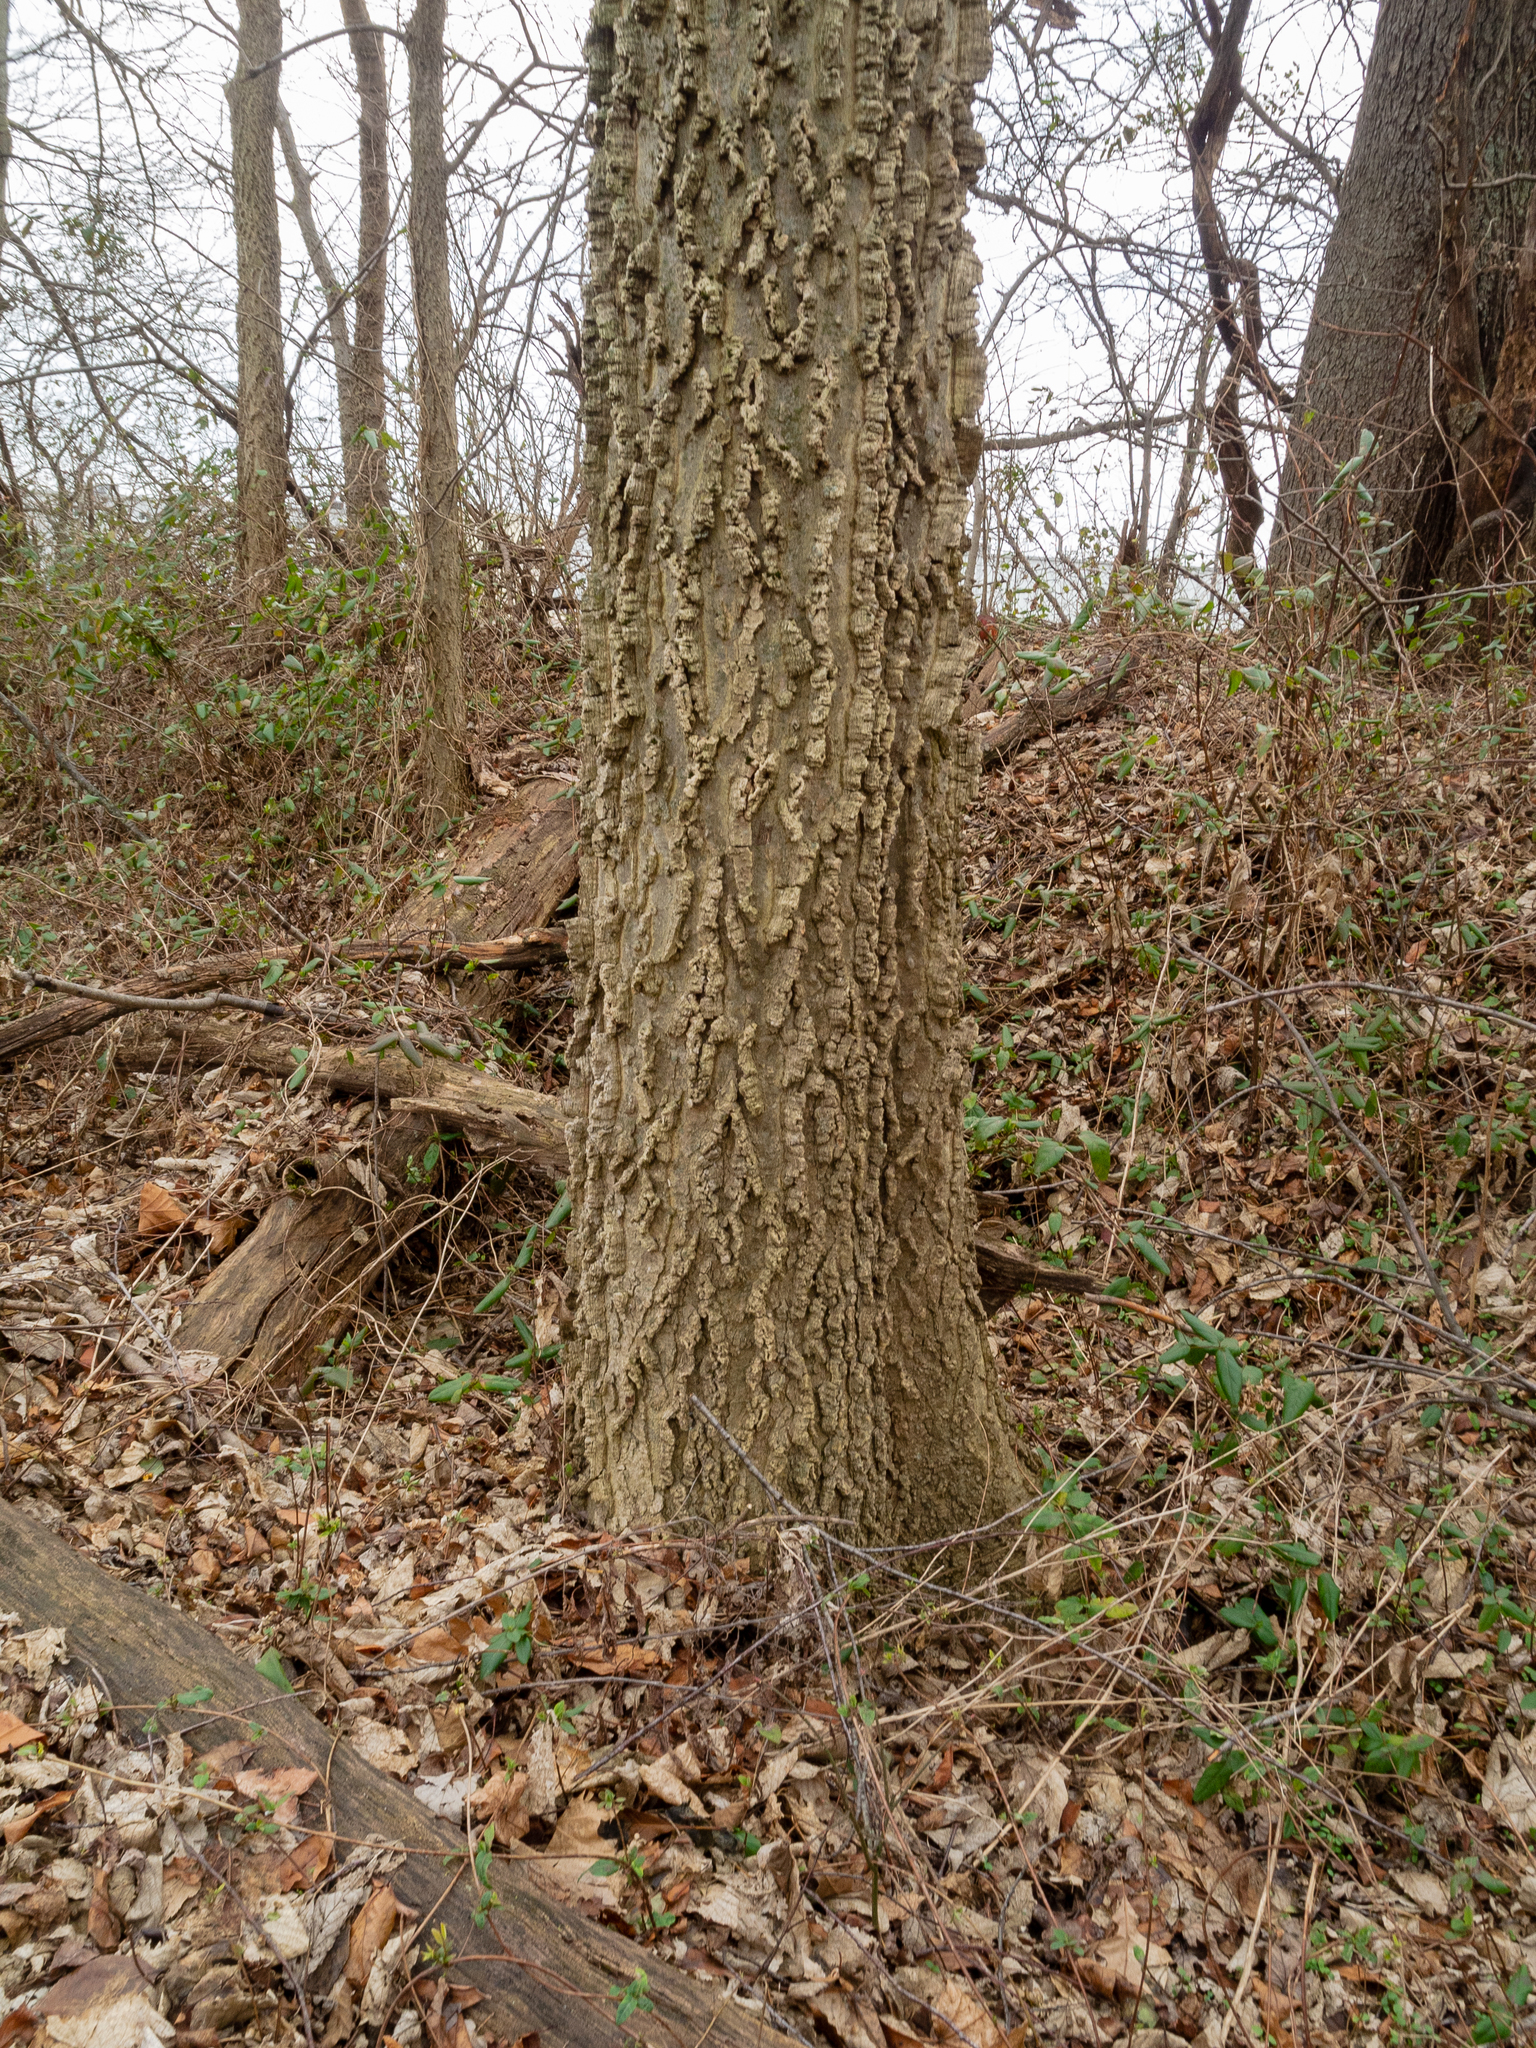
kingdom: Plantae
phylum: Tracheophyta
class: Magnoliopsida
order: Rosales
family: Cannabaceae
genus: Celtis
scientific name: Celtis occidentalis
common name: Common hackberry
